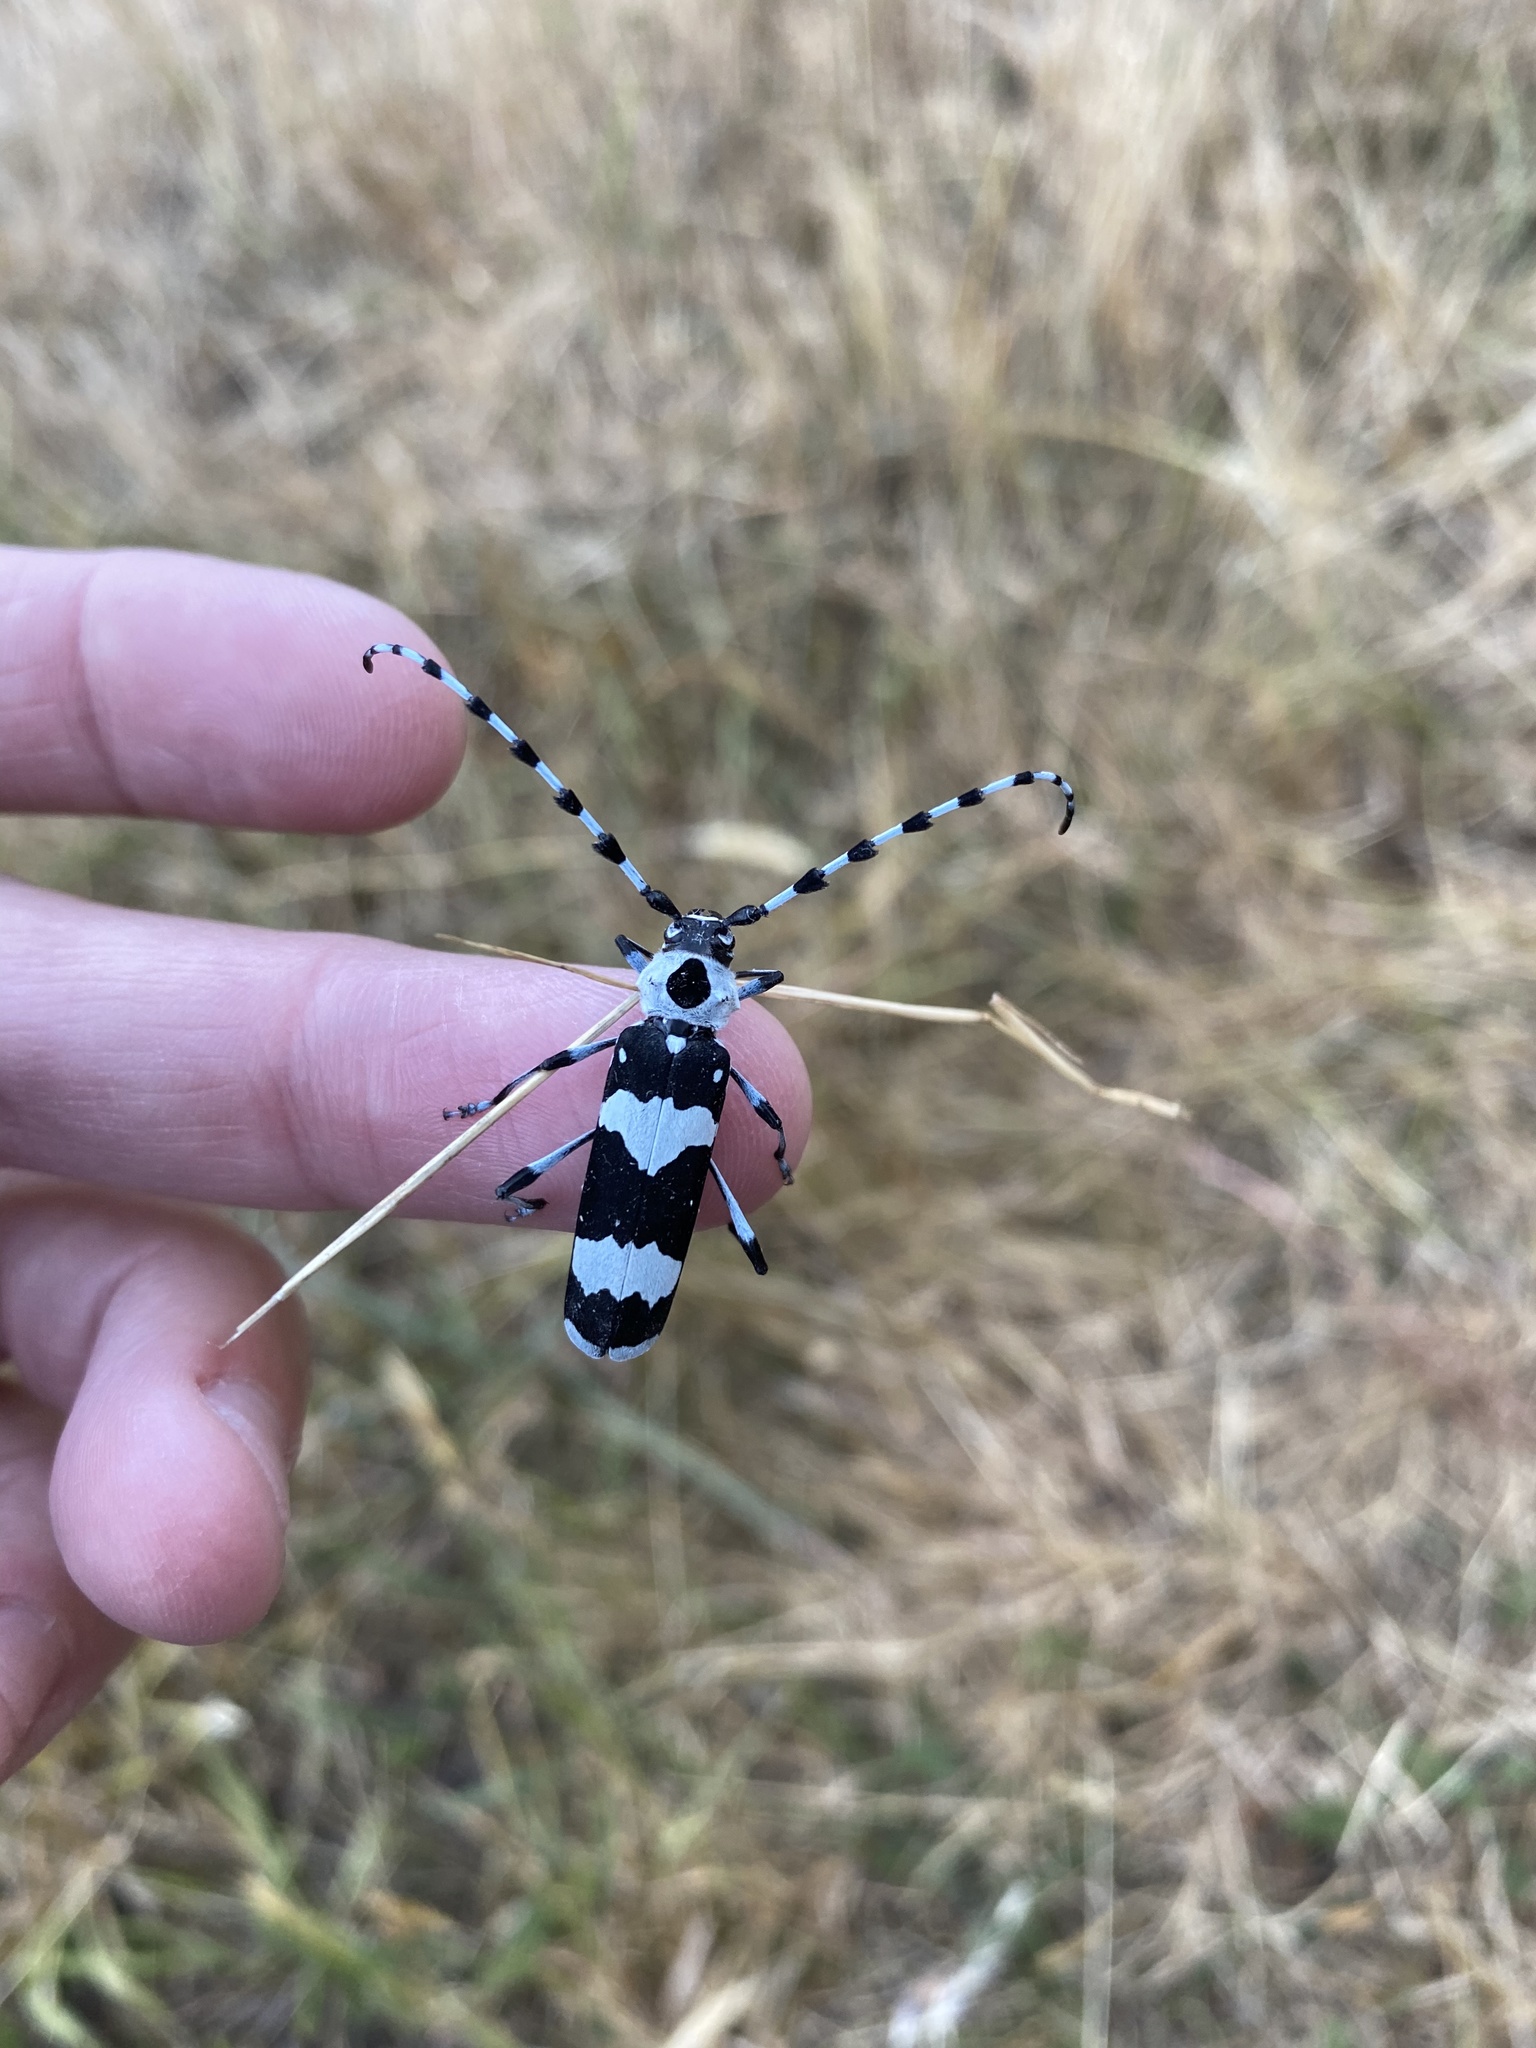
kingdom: Animalia
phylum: Arthropoda
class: Insecta
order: Coleoptera
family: Cerambycidae
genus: Rosalia
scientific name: Rosalia funebris
